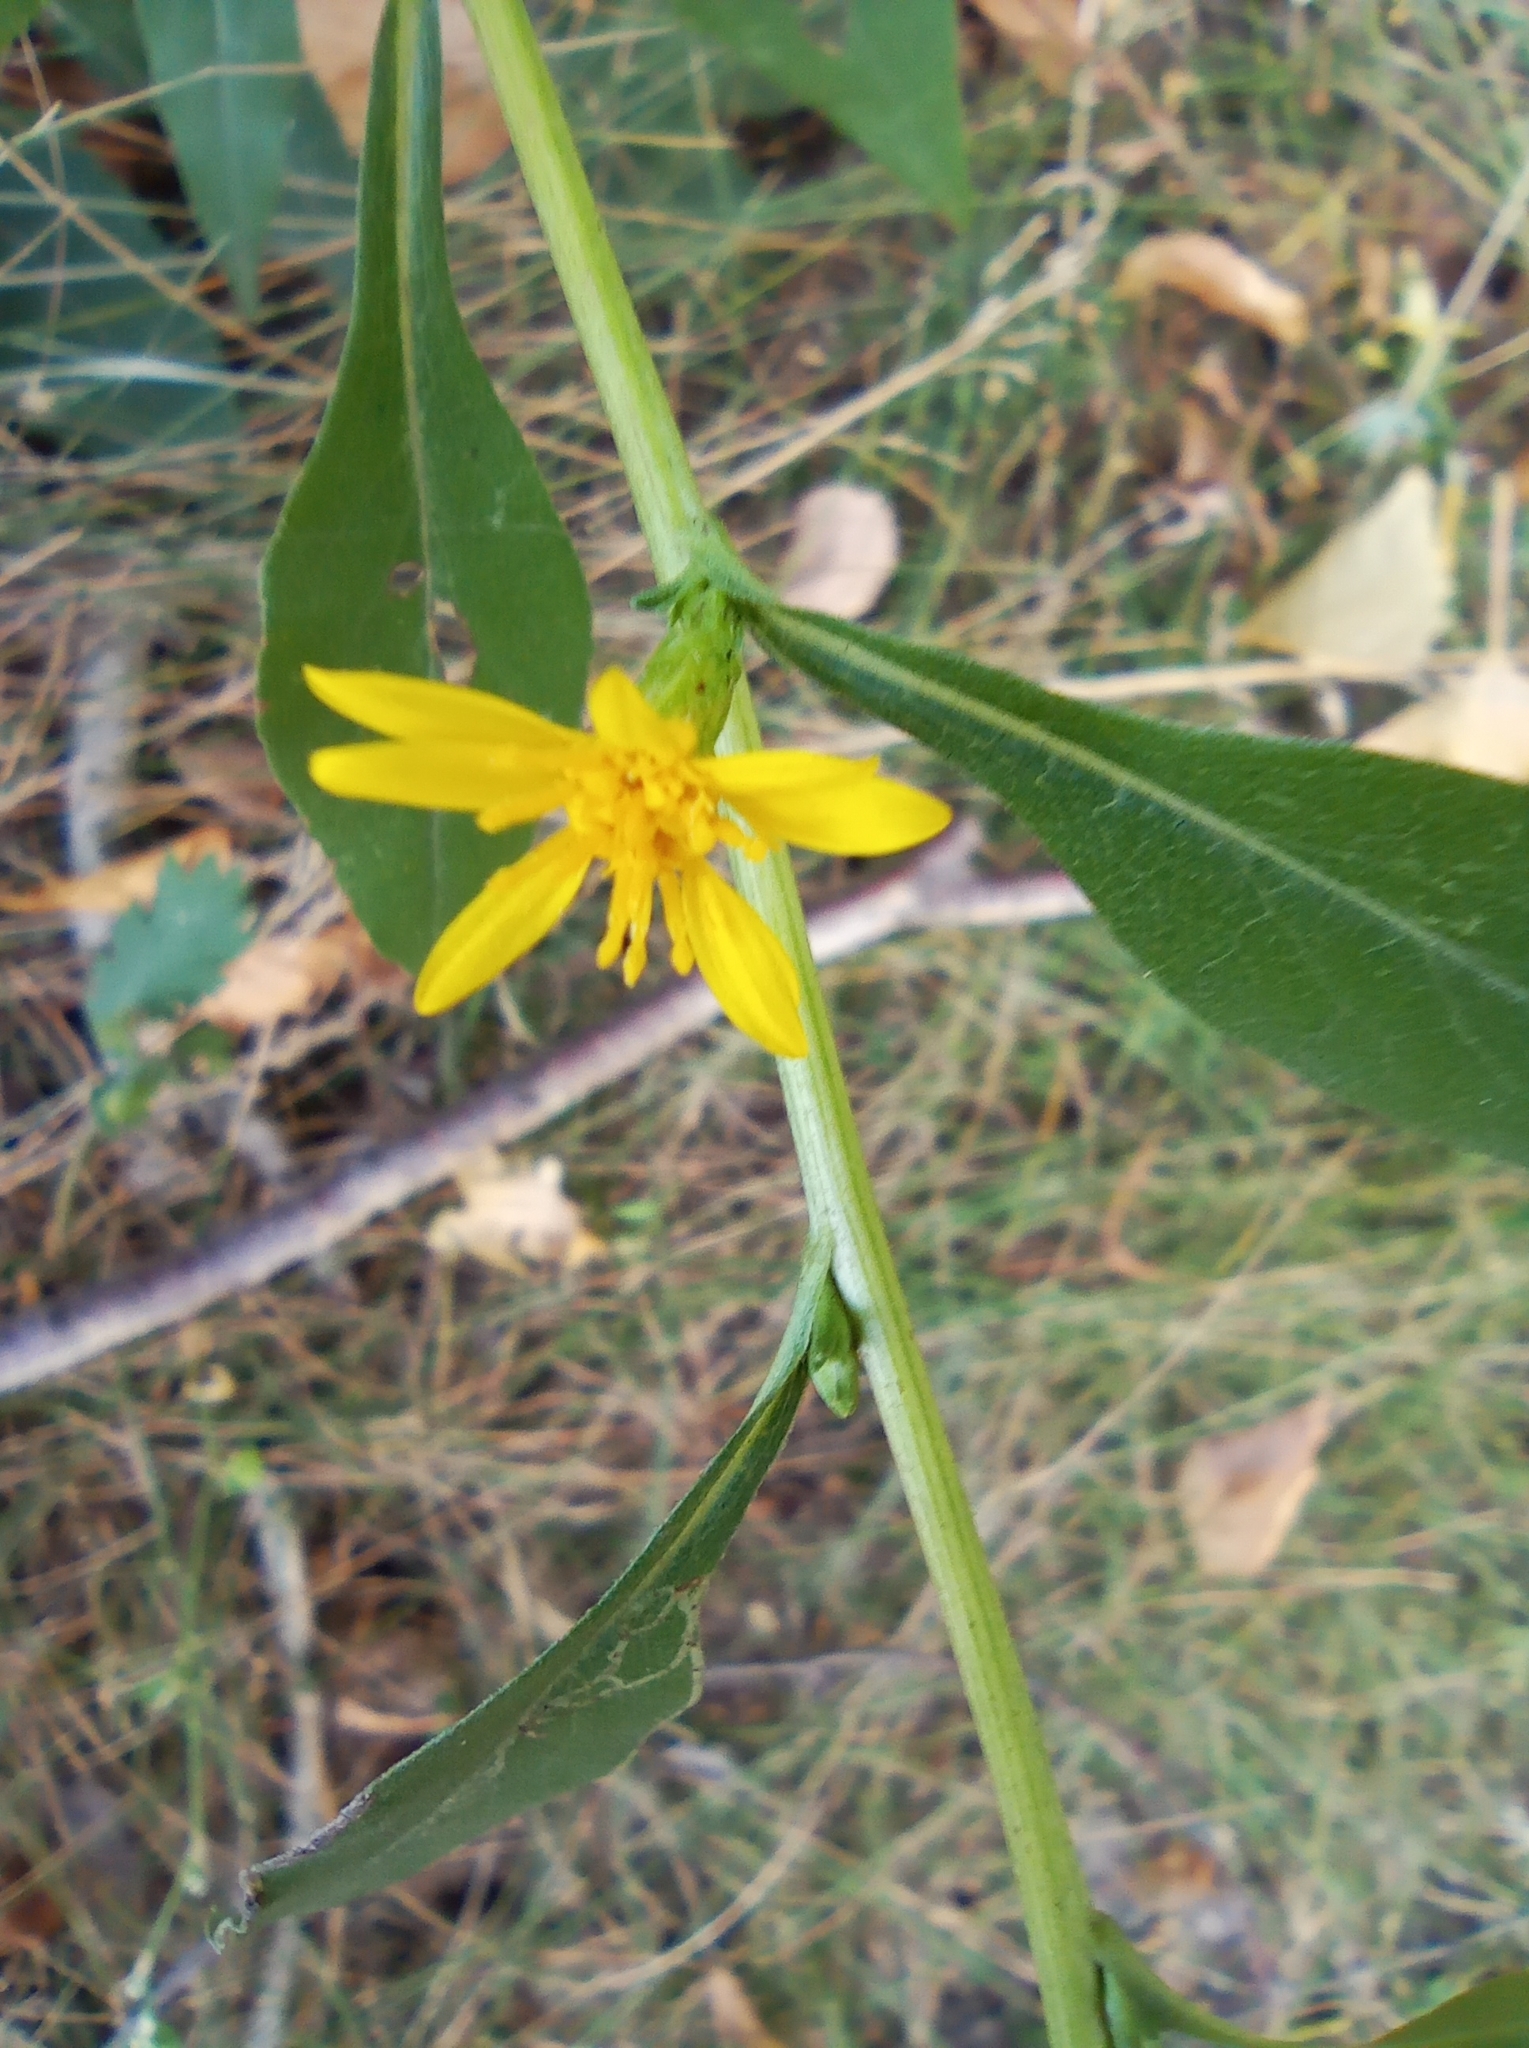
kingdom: Plantae
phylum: Tracheophyta
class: Magnoliopsida
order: Asterales
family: Asteraceae
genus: Solidago
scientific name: Solidago virgaurea
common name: Goldenrod
